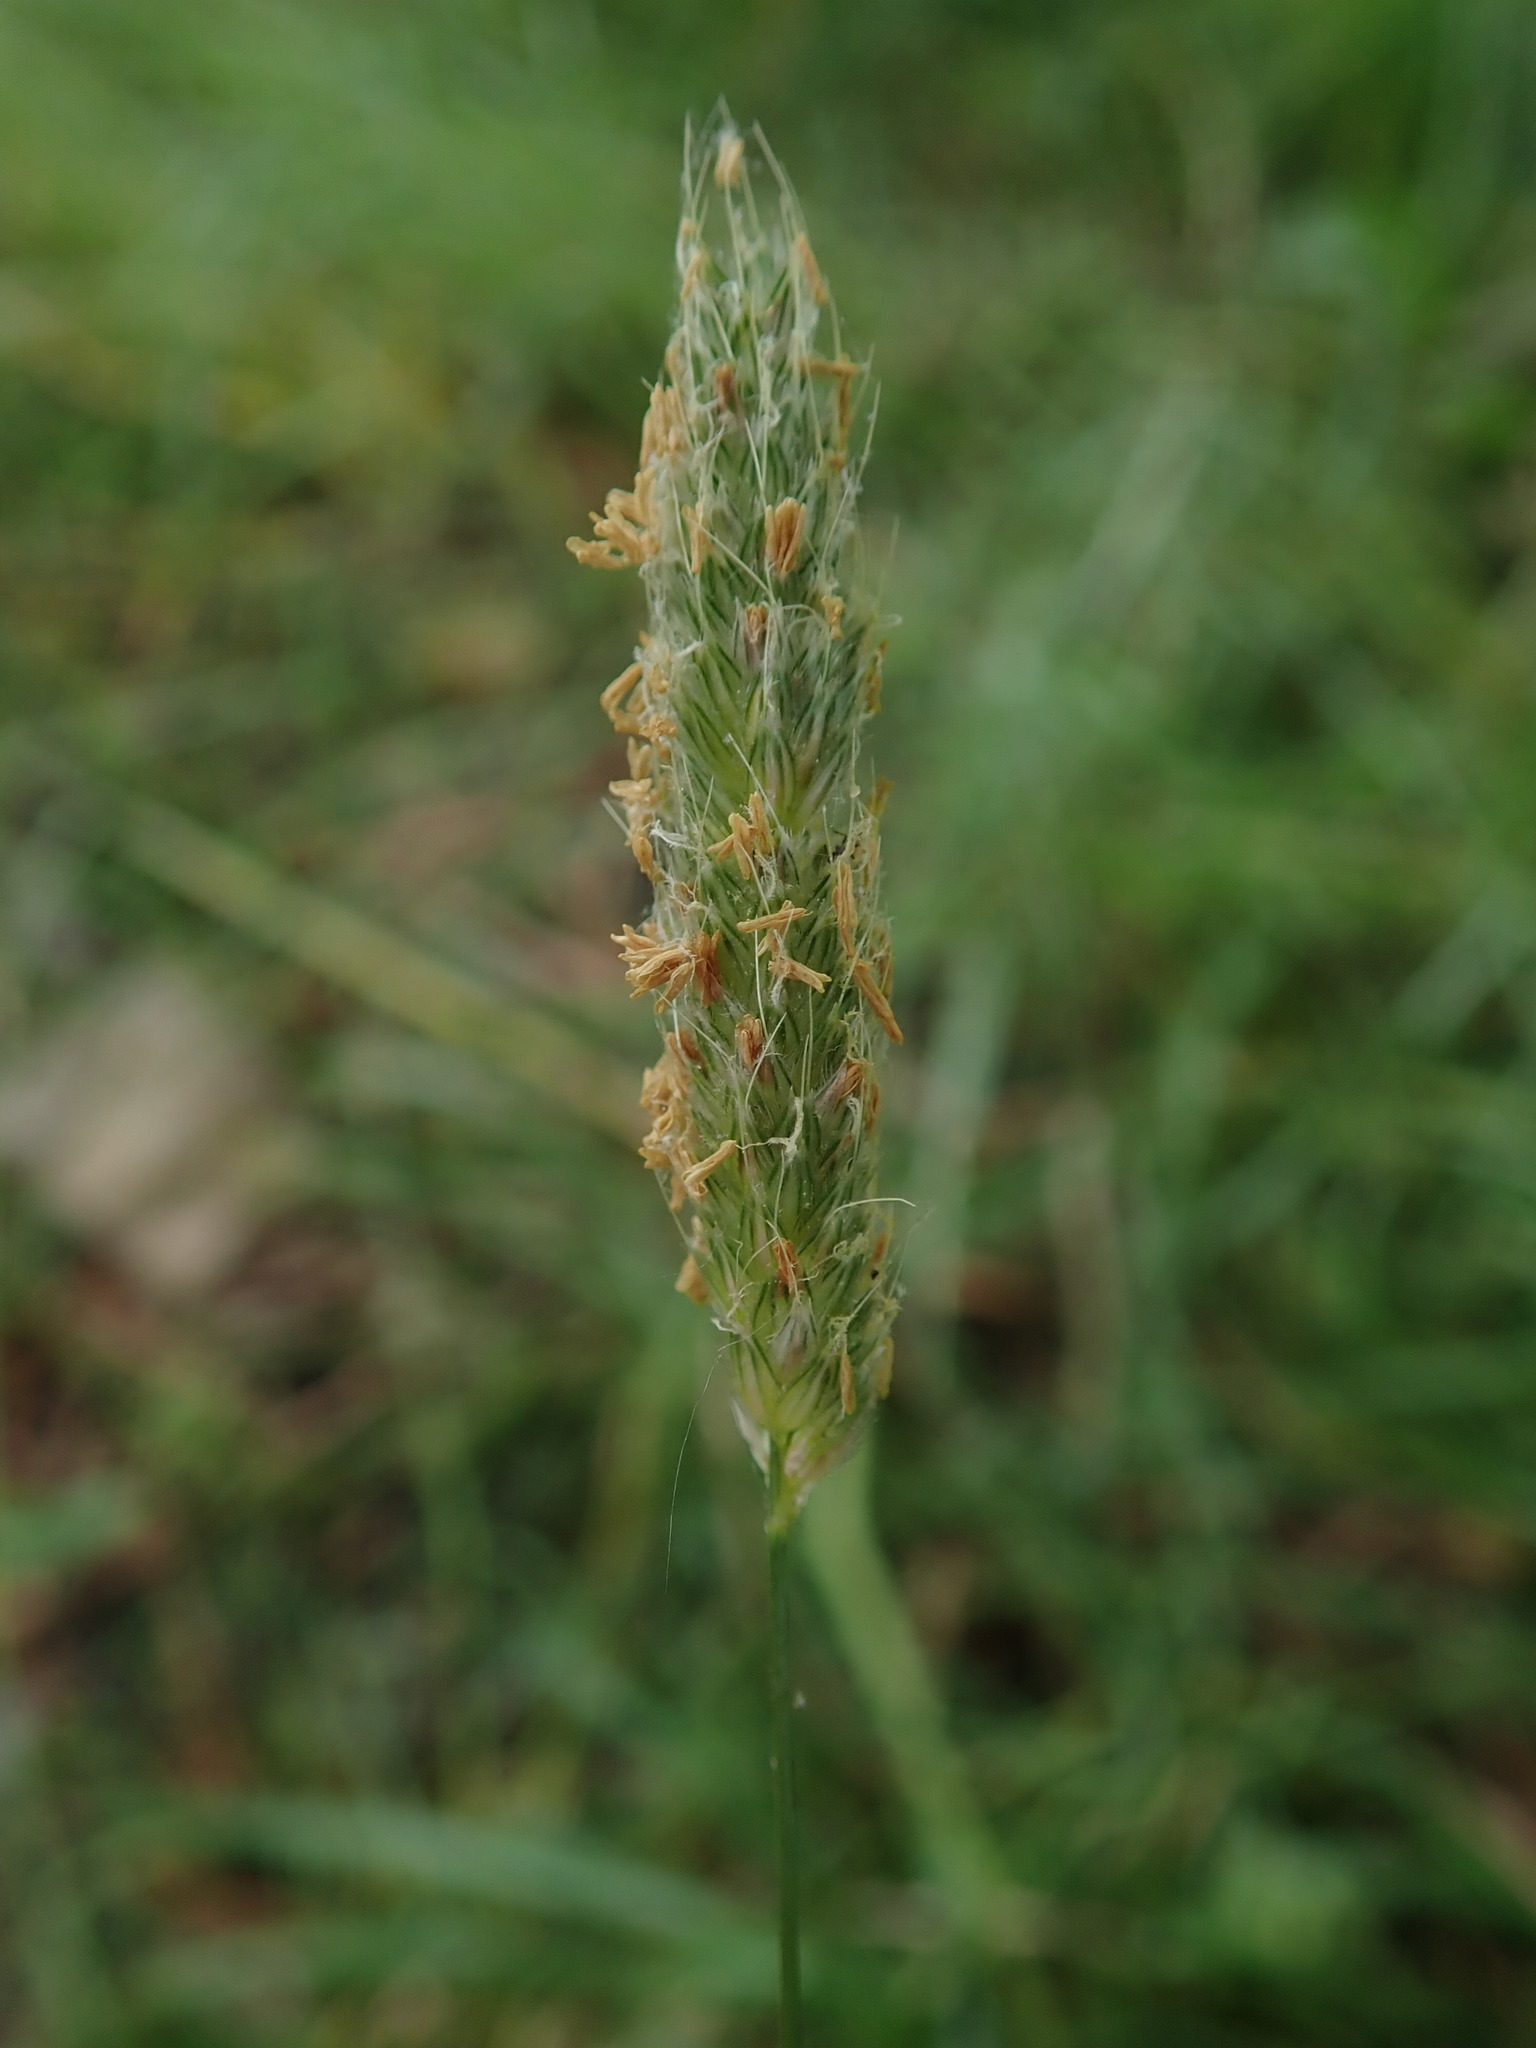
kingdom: Plantae
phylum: Tracheophyta
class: Liliopsida
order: Poales
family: Poaceae
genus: Alopecurus
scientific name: Alopecurus pratensis
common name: Meadow foxtail
